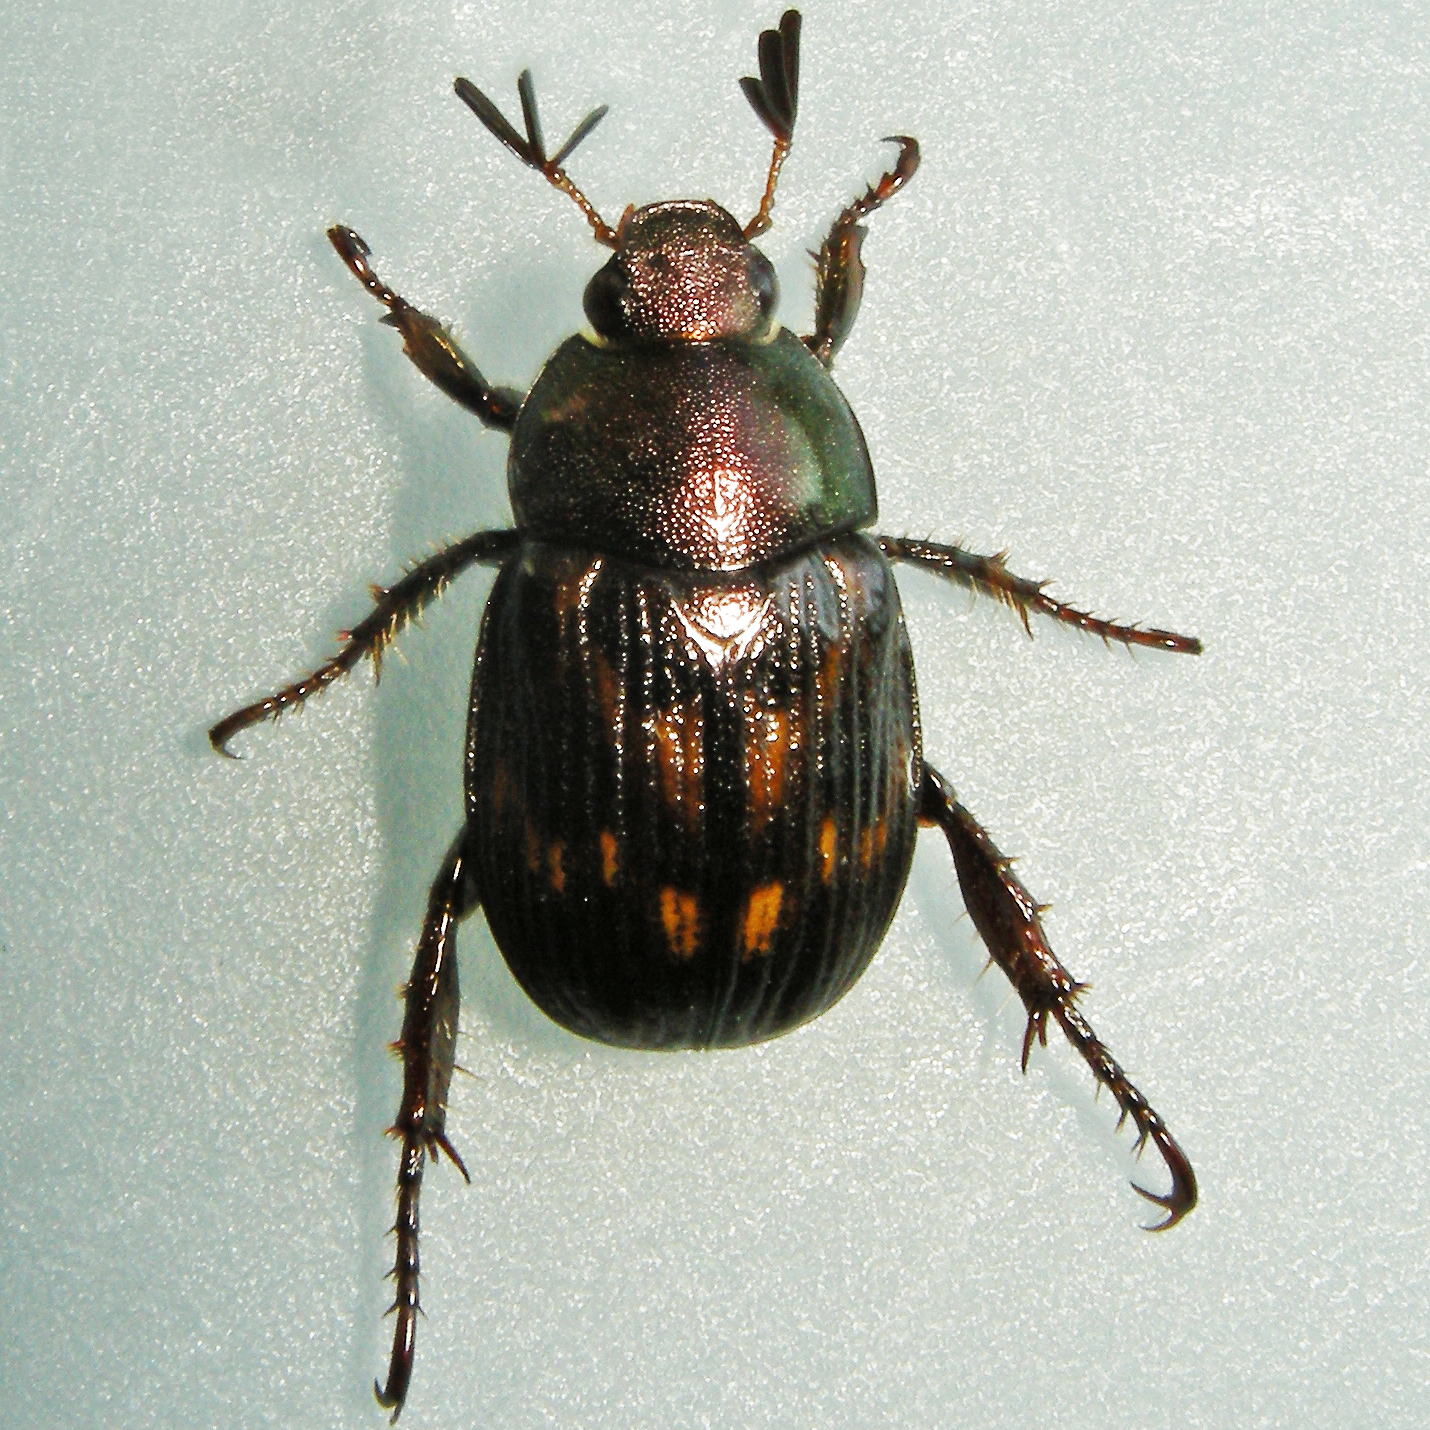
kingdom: Animalia
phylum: Arthropoda
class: Insecta
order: Coleoptera
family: Scarabaeidae
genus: Exomala
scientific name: Exomala orientalis
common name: Oriental beetle
